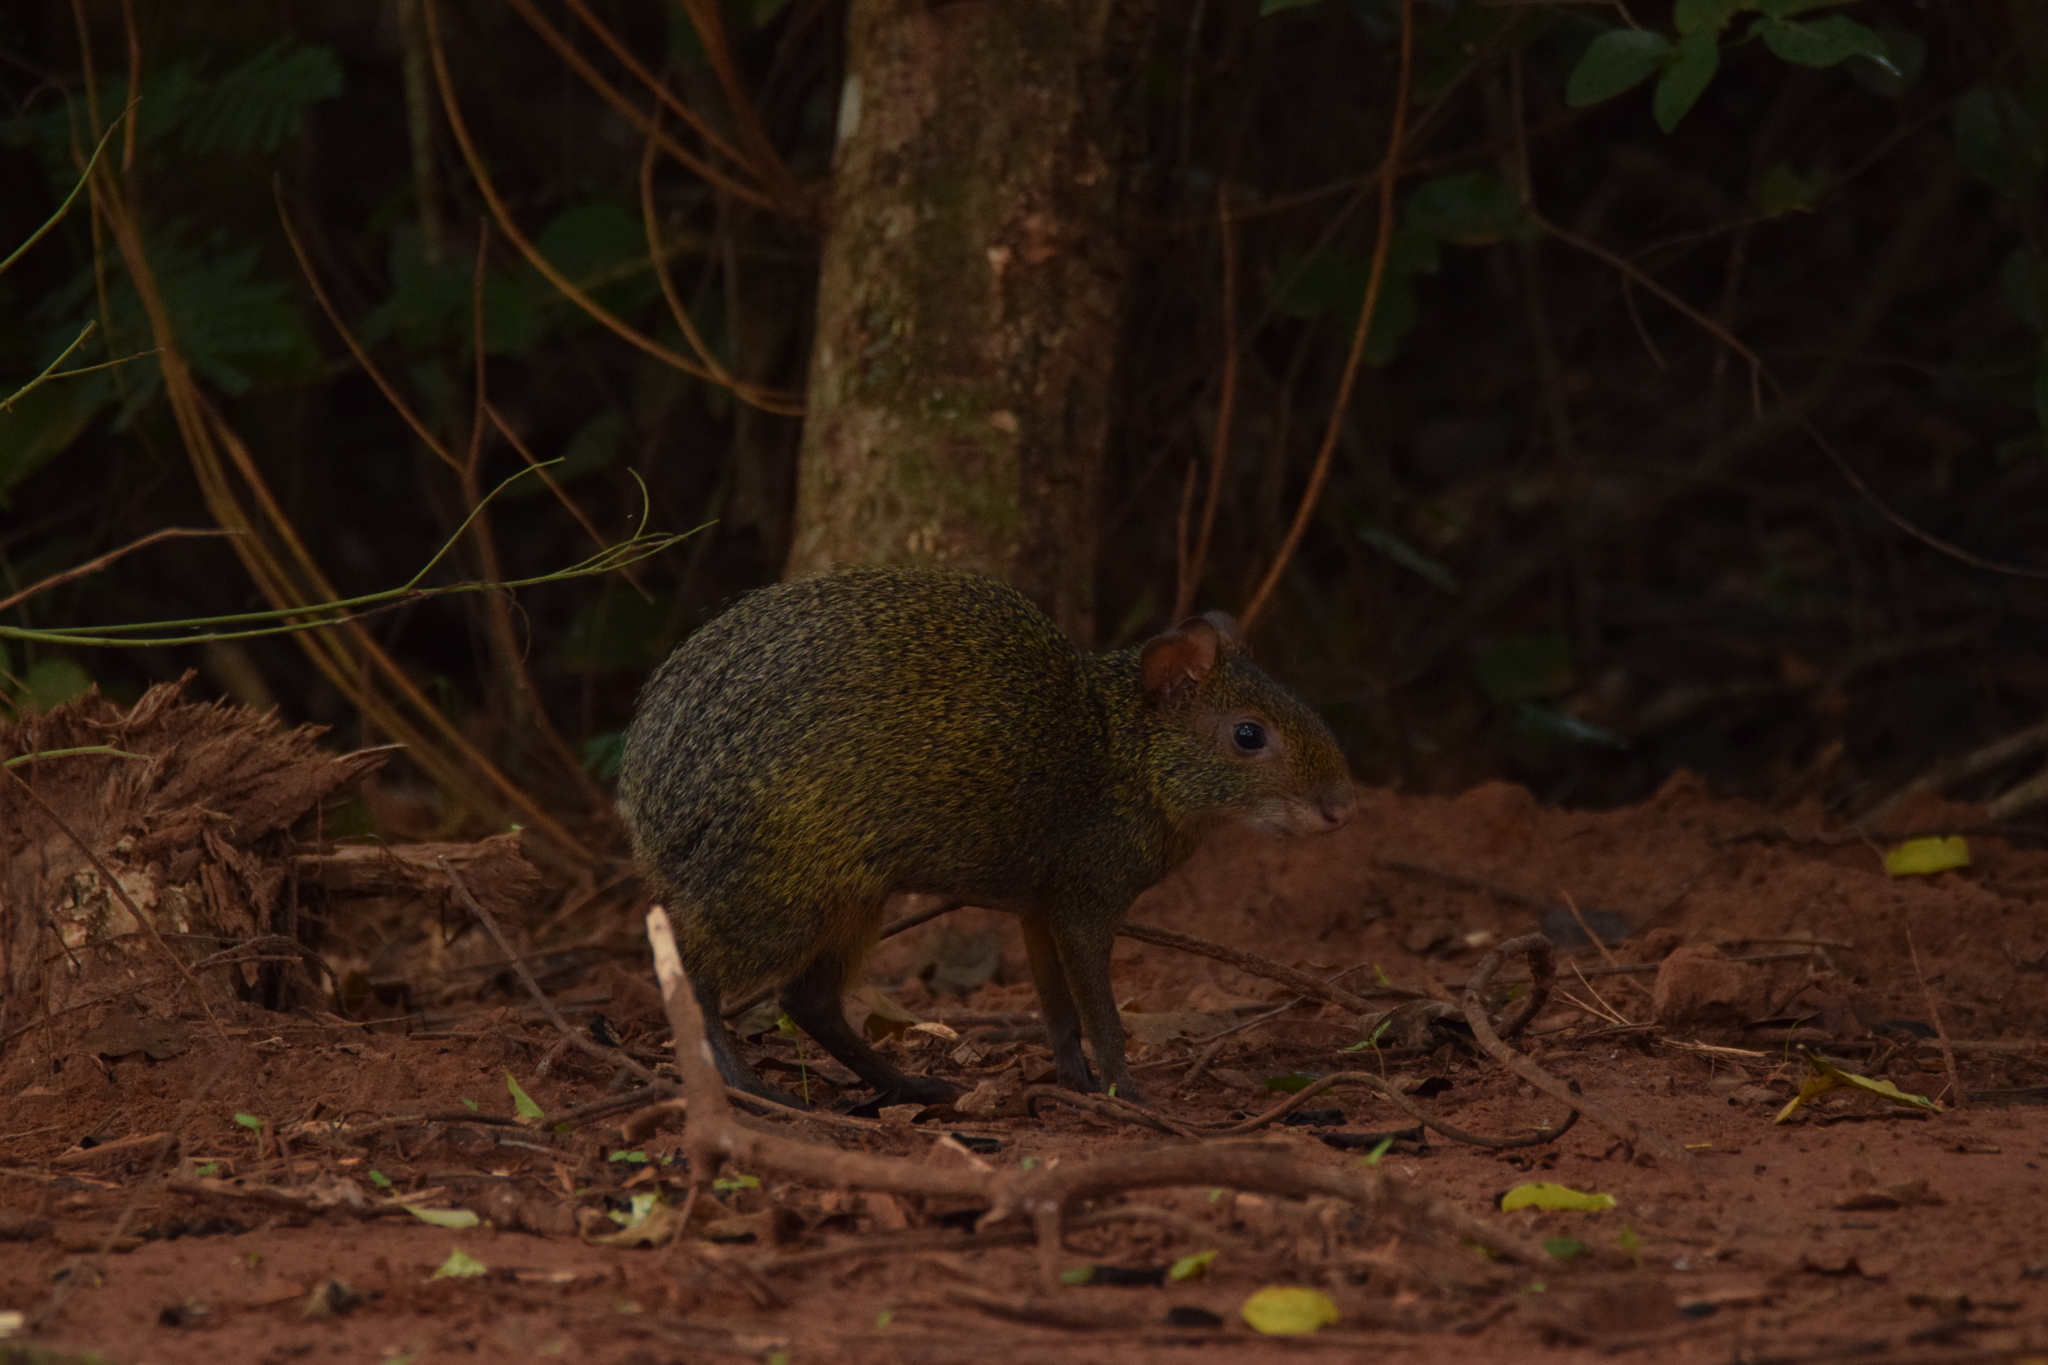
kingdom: Animalia
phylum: Chordata
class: Mammalia
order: Rodentia
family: Dasyproctidae
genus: Dasyprocta
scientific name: Dasyprocta azarae
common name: Azara's agouti
